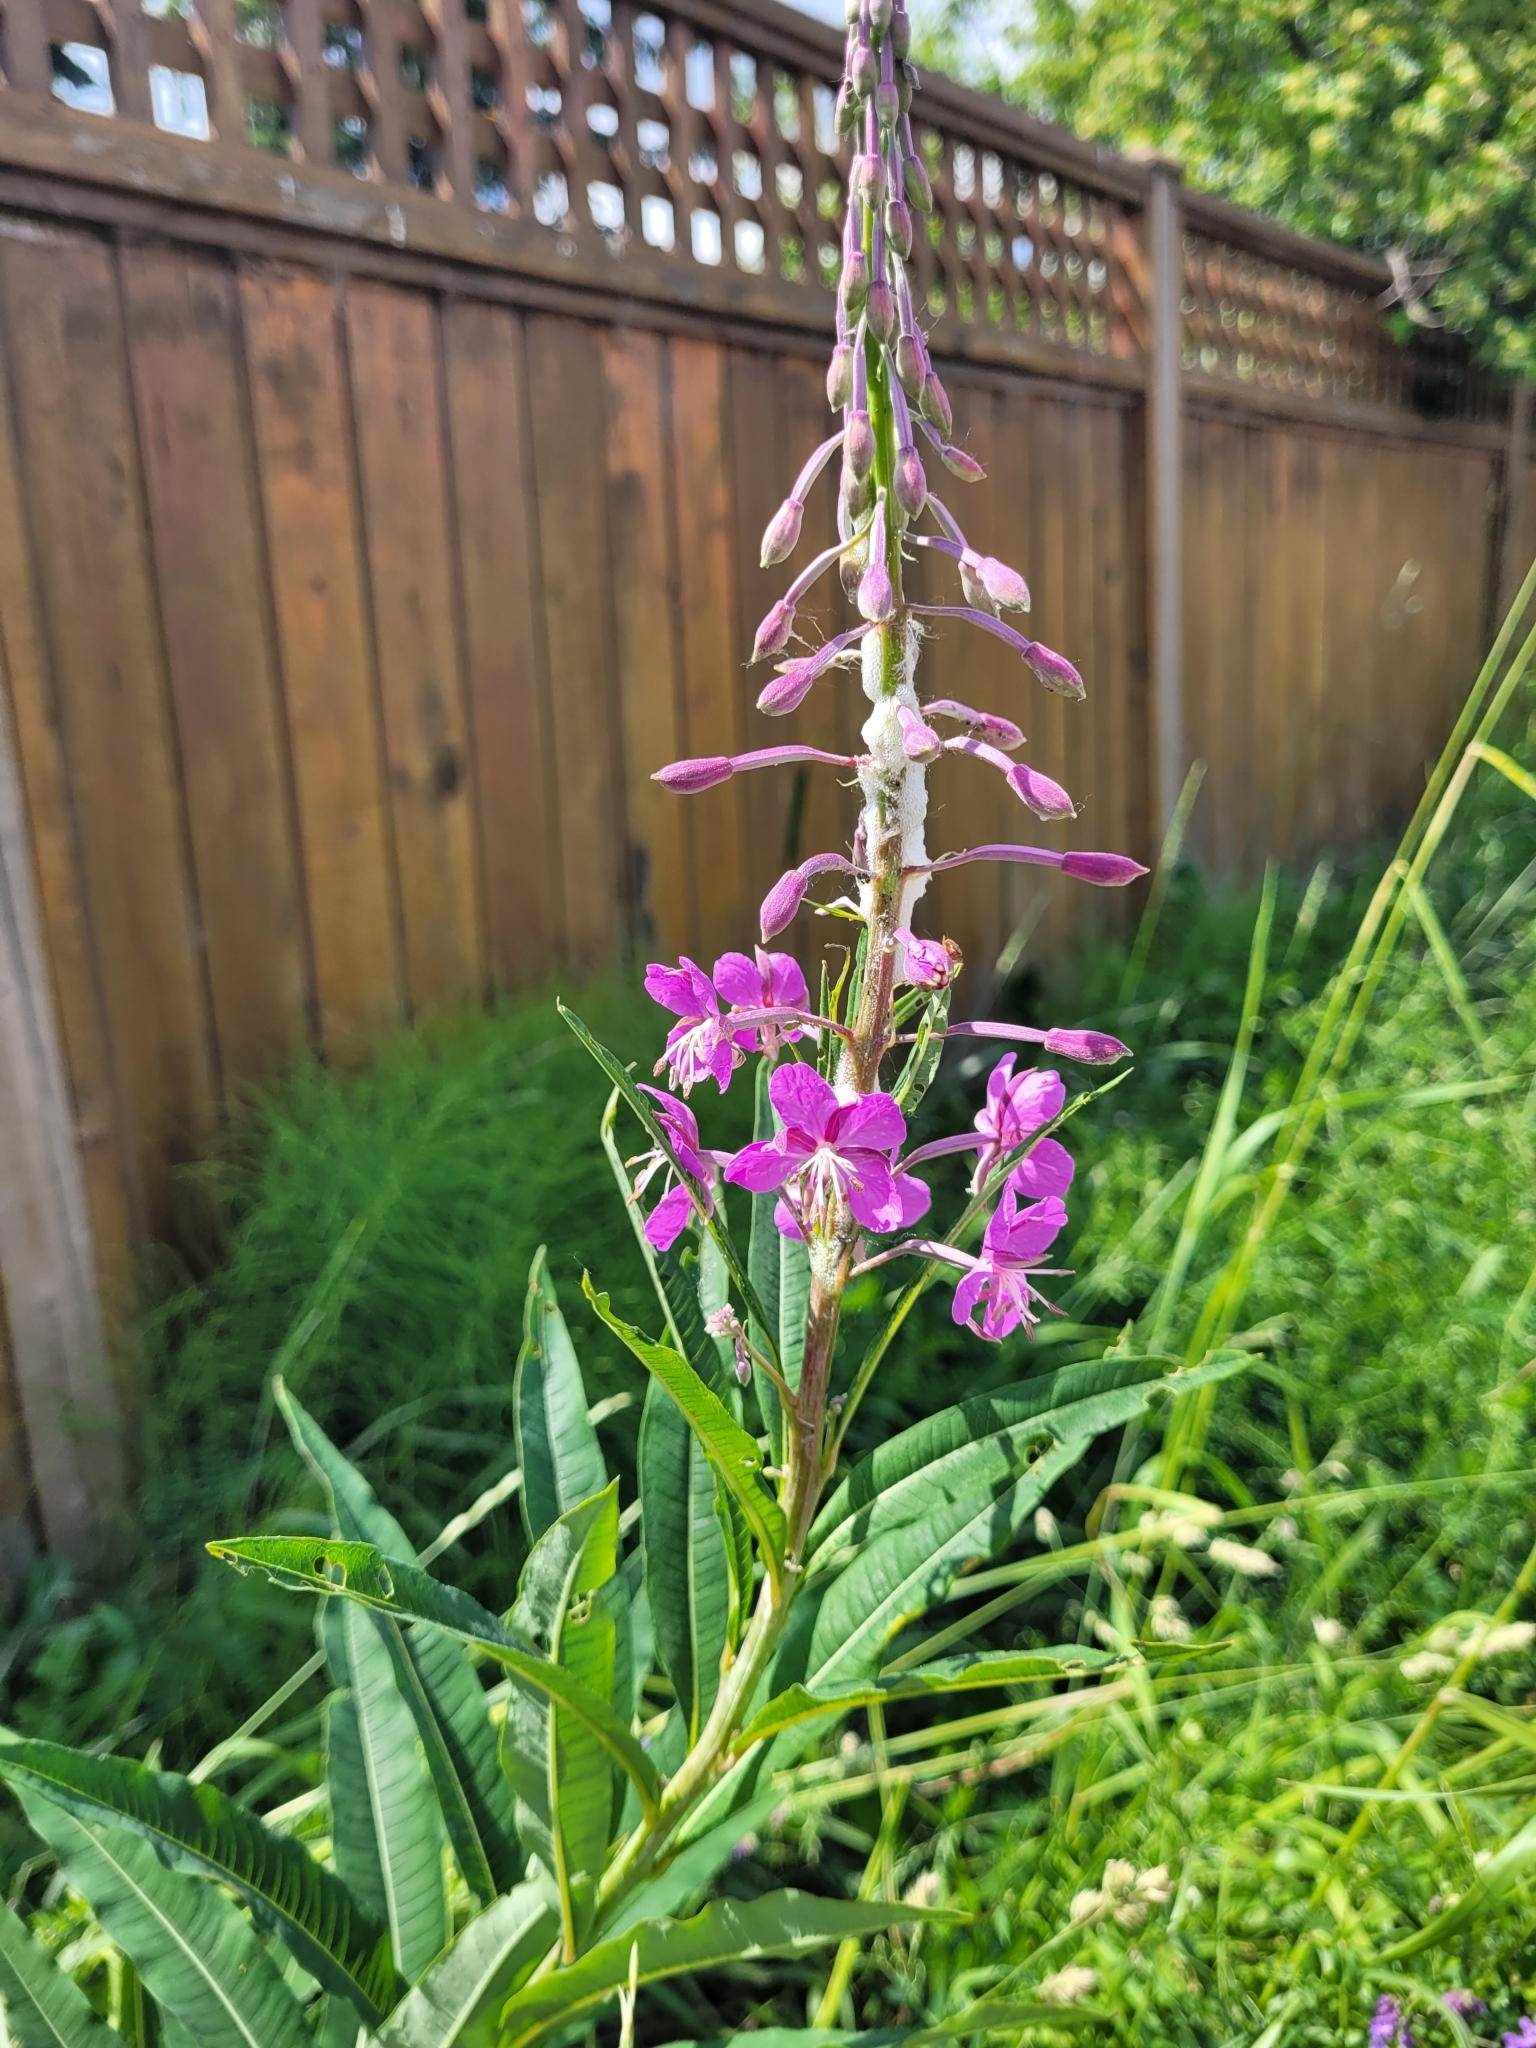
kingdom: Plantae
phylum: Tracheophyta
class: Magnoliopsida
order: Myrtales
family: Onagraceae
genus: Chamaenerion
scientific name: Chamaenerion angustifolium
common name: Fireweed
